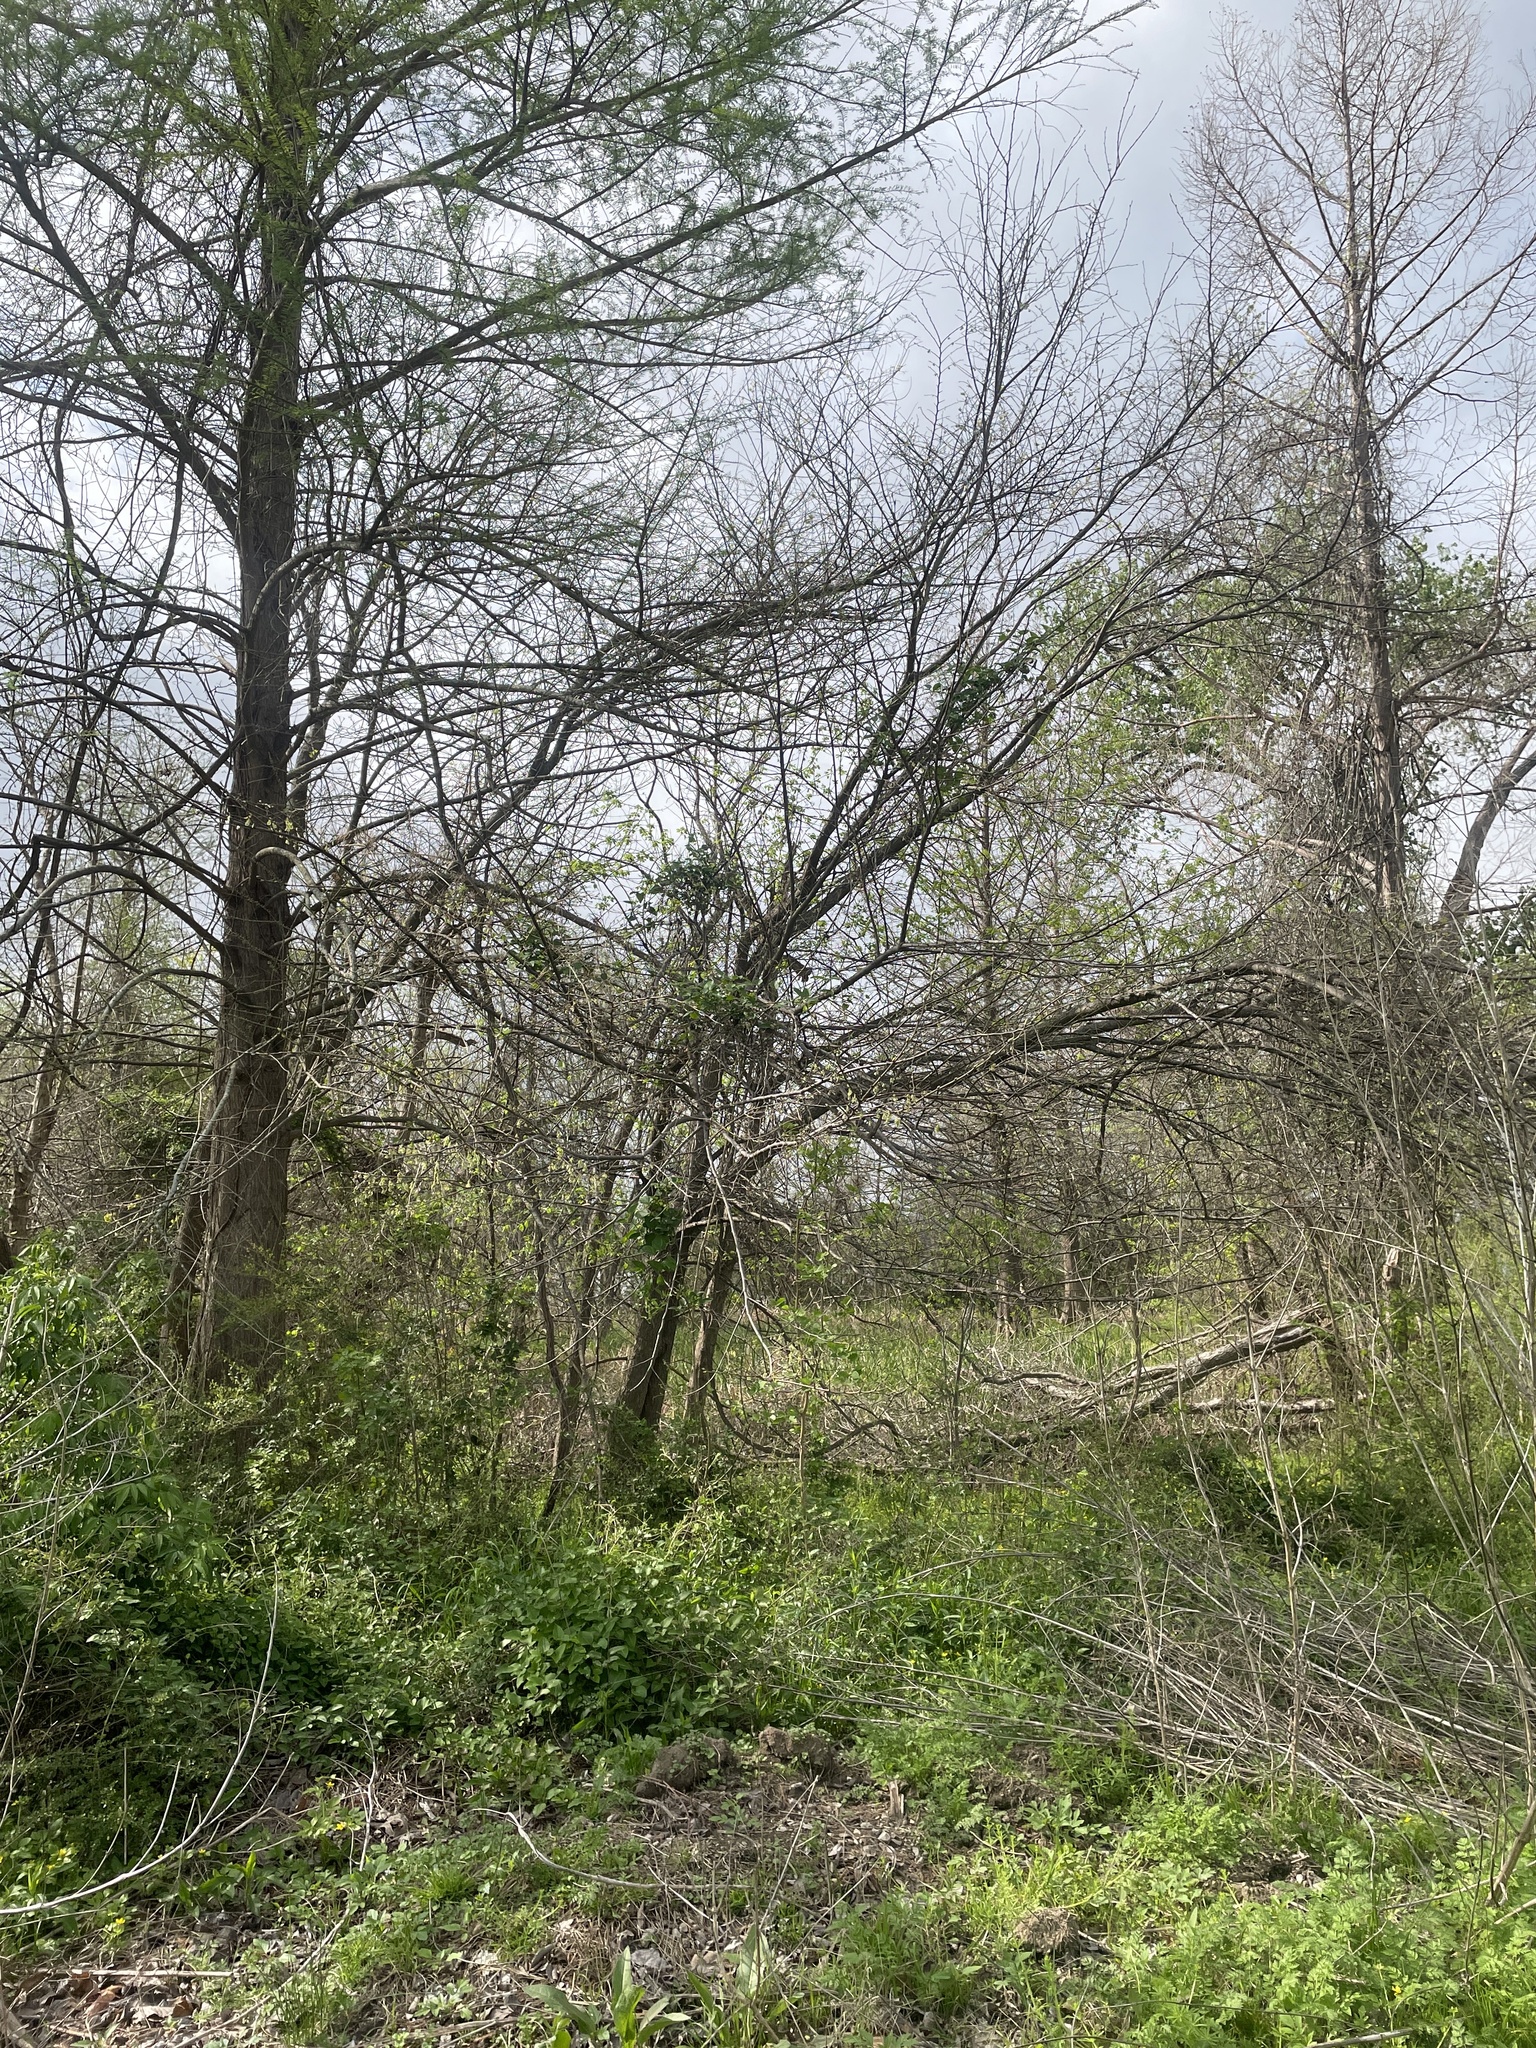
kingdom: Plantae
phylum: Tracheophyta
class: Magnoliopsida
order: Rosales
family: Ulmaceae
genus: Ulmus
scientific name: Ulmus americana
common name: American elm
